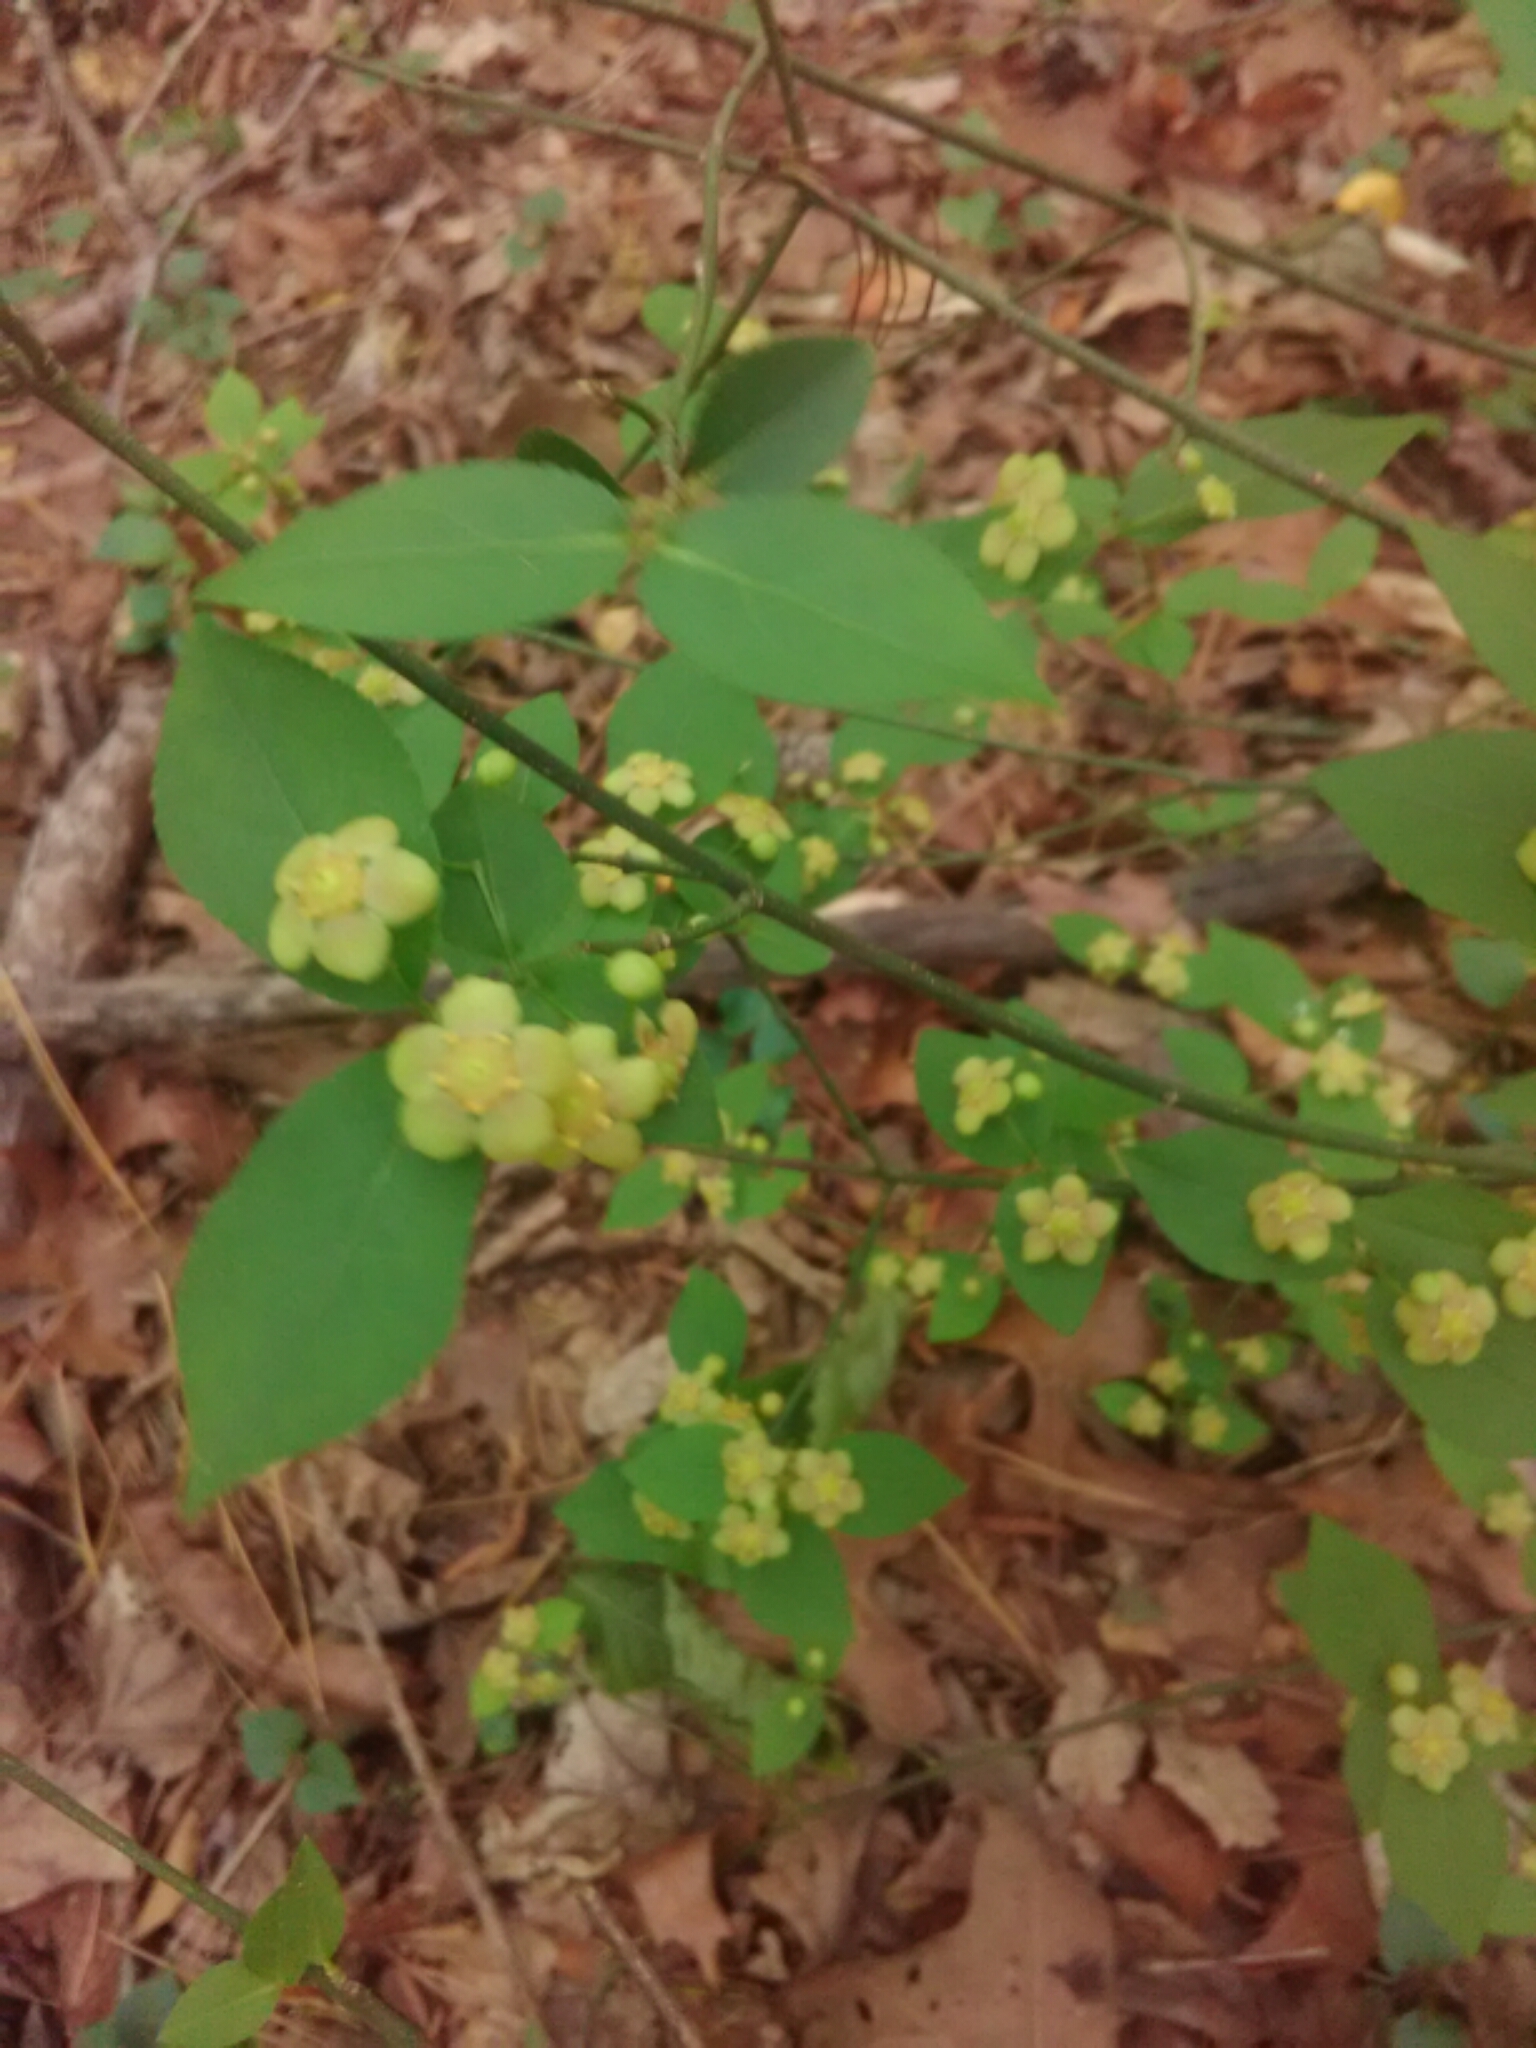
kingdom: Plantae
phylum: Tracheophyta
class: Magnoliopsida
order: Celastrales
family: Celastraceae
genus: Euonymus
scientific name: Euonymus americanus
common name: Bursting-heart
